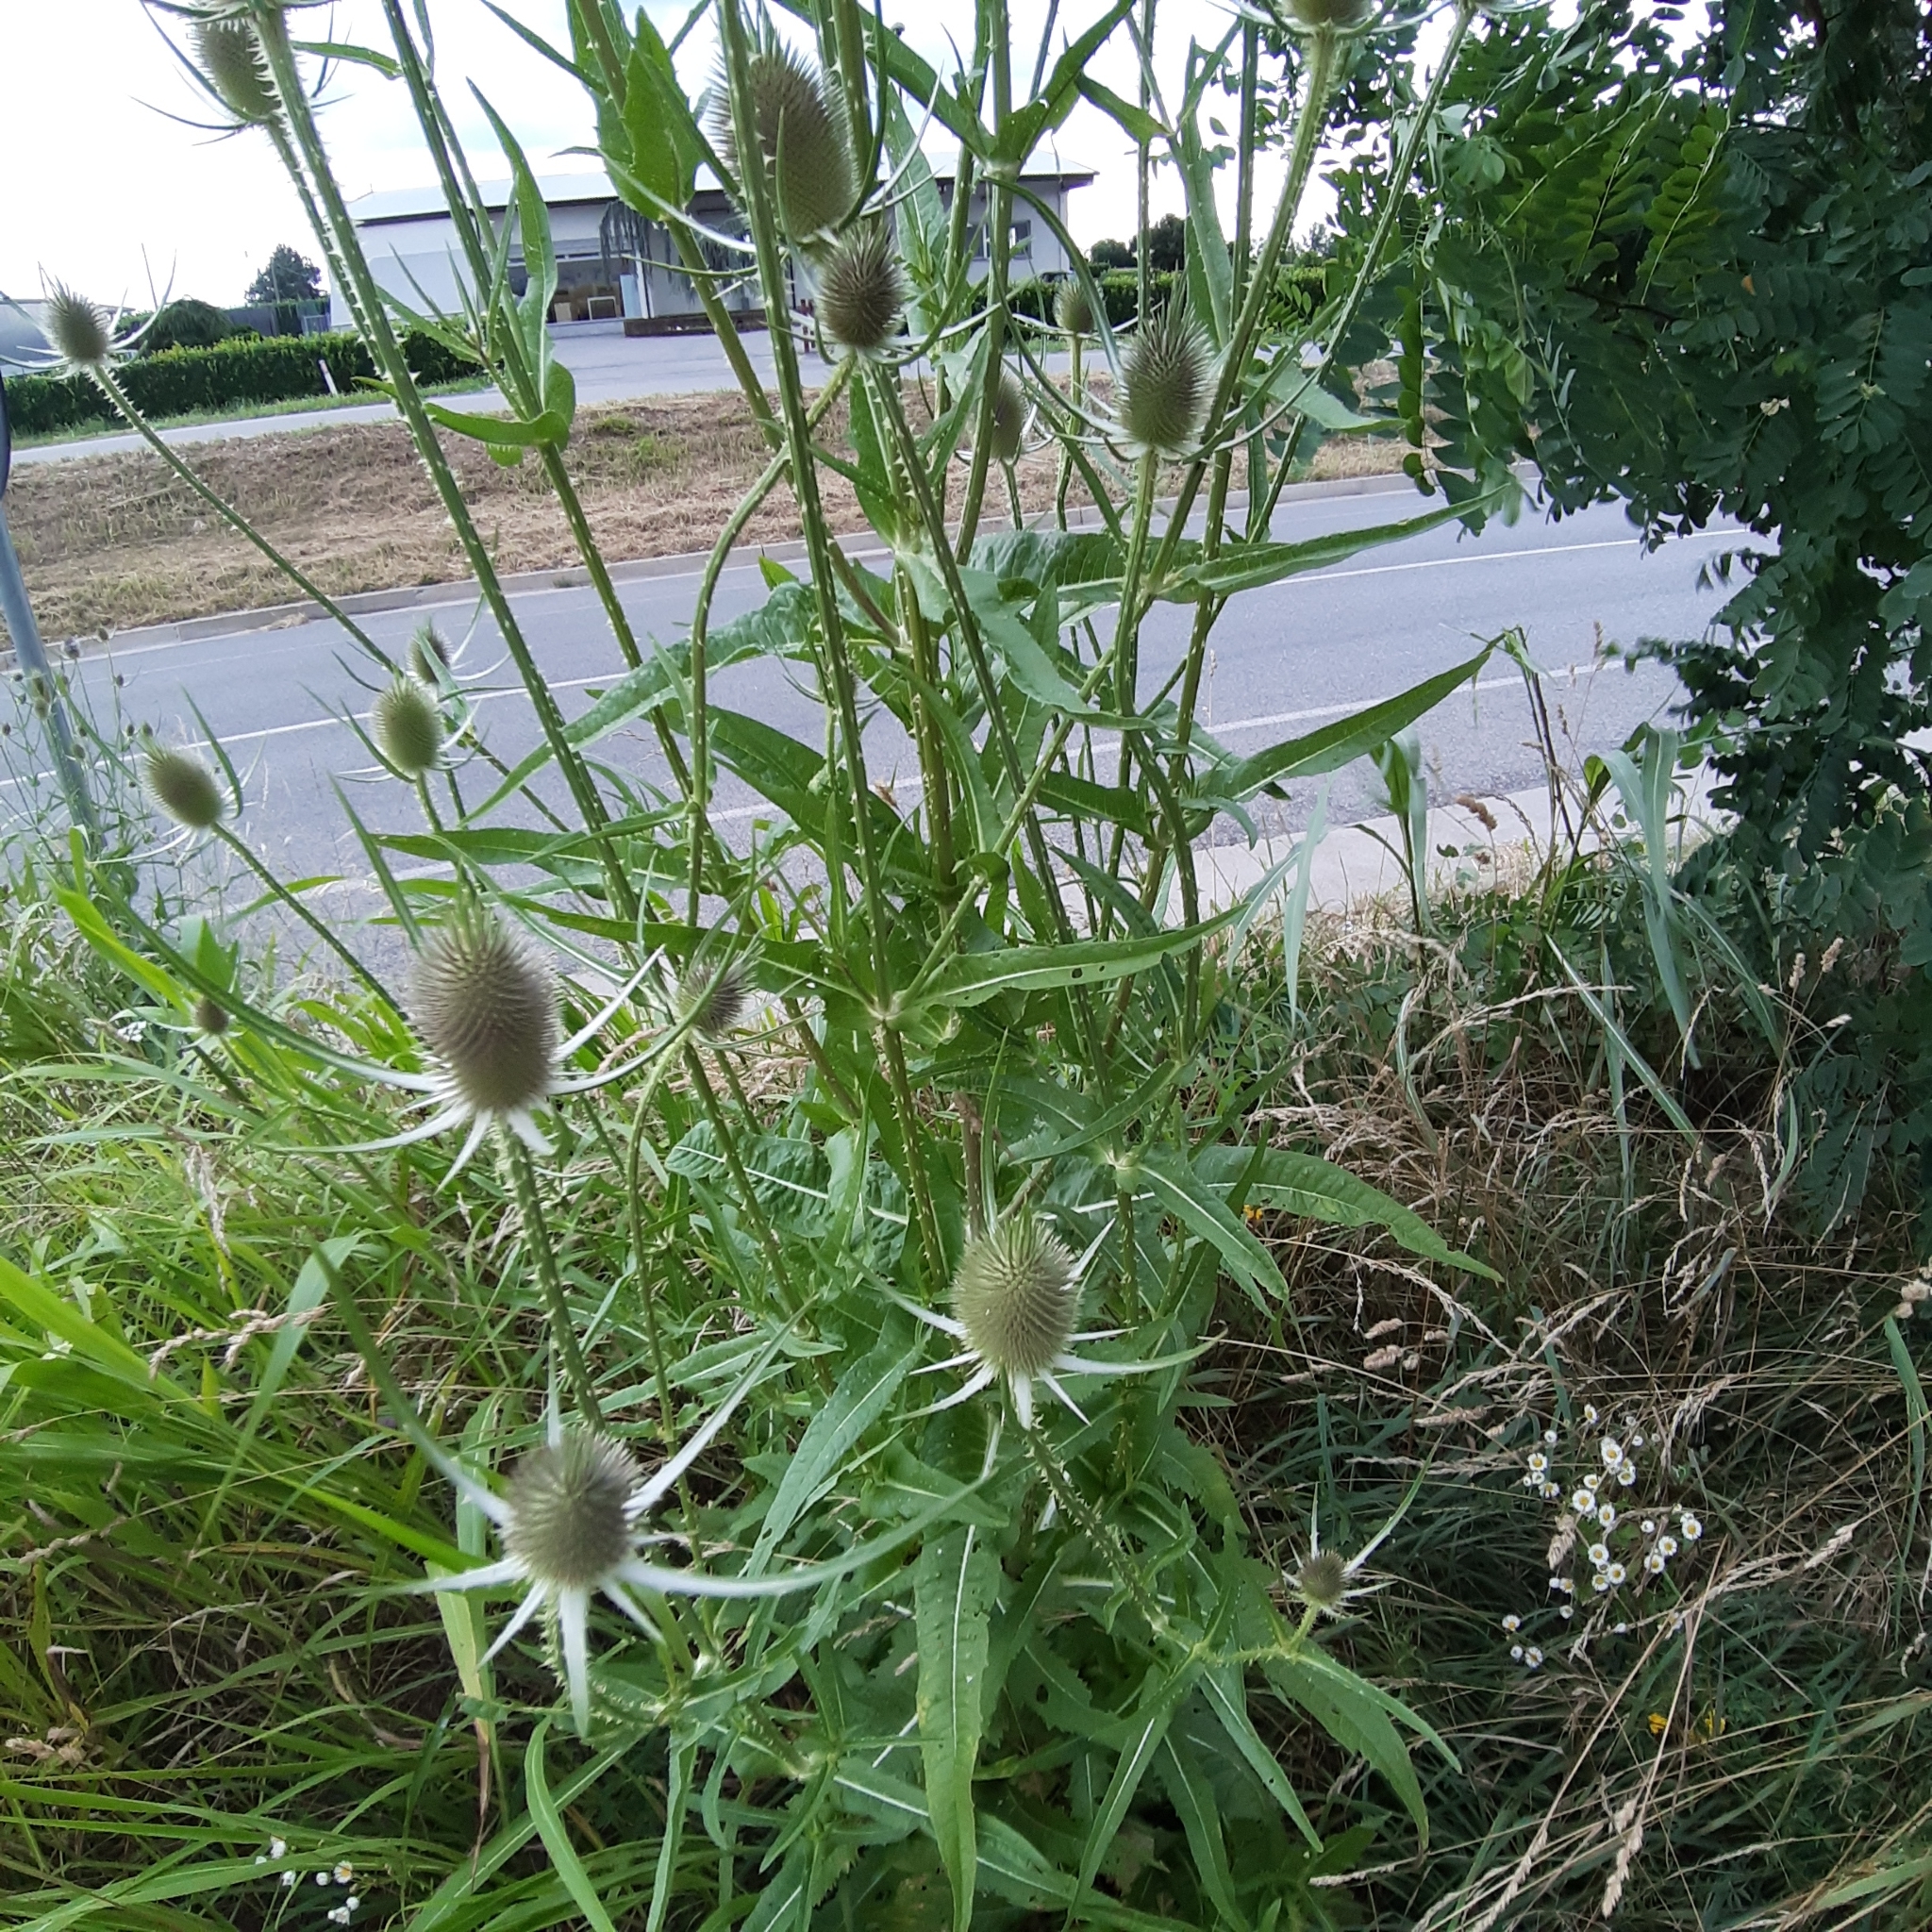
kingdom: Plantae
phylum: Tracheophyta
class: Magnoliopsida
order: Dipsacales
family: Caprifoliaceae
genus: Dipsacus
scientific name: Dipsacus fullonum
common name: Teasel
